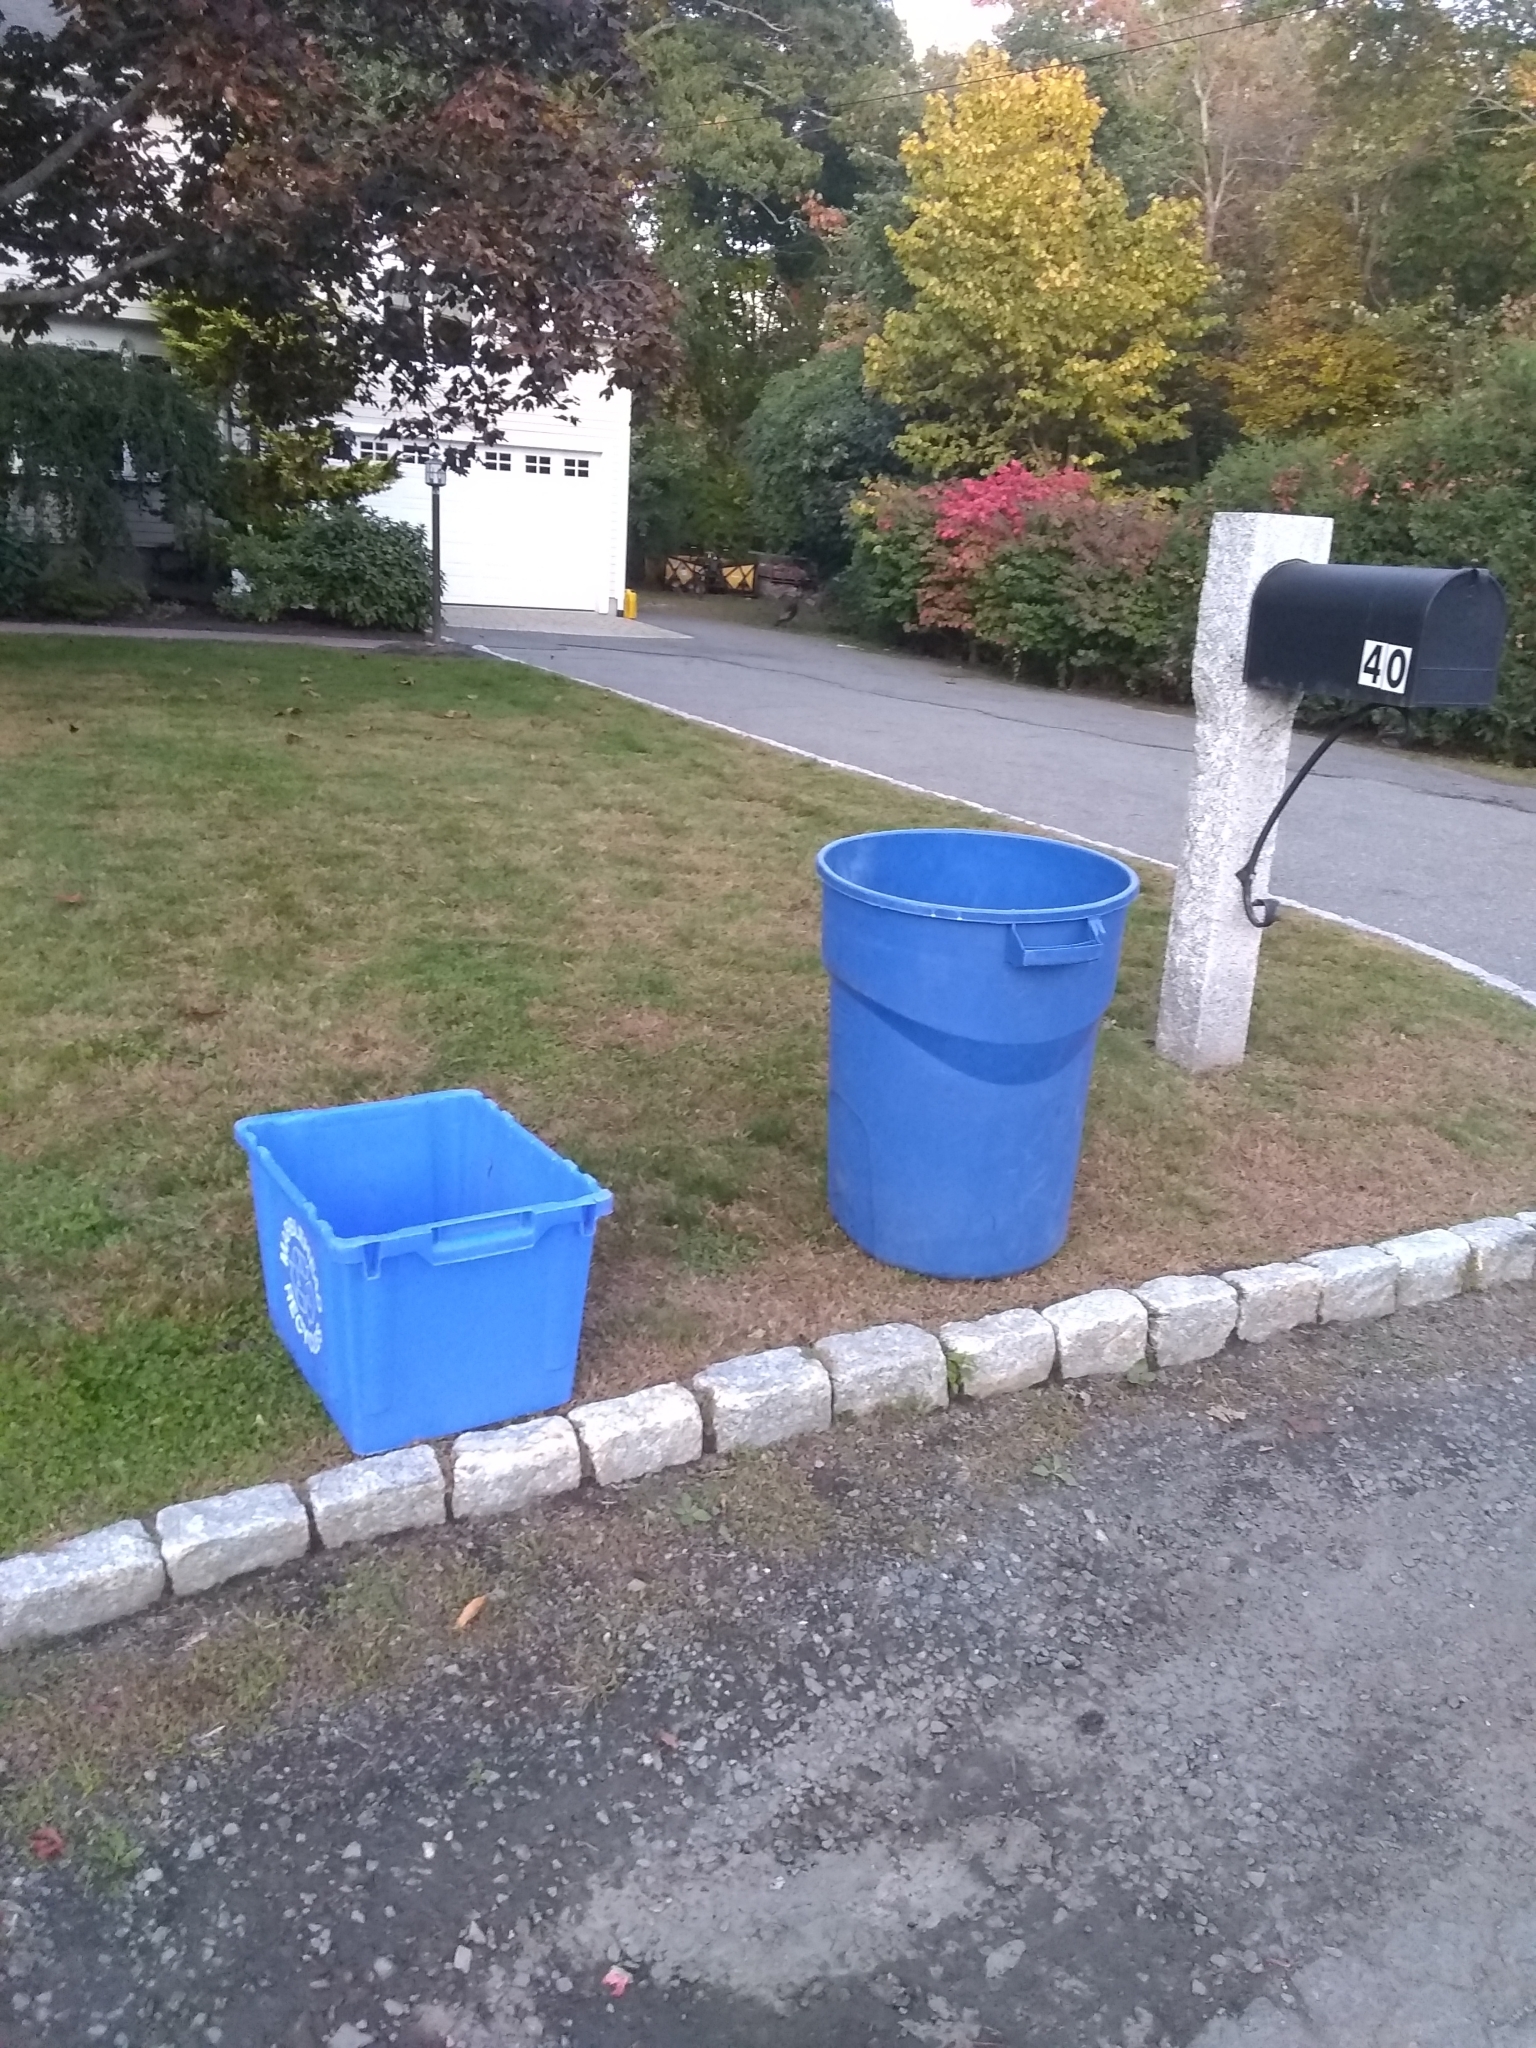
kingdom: Animalia
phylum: Chordata
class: Aves
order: Galliformes
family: Phasianidae
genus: Meleagris
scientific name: Meleagris gallopavo
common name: Wild turkey
